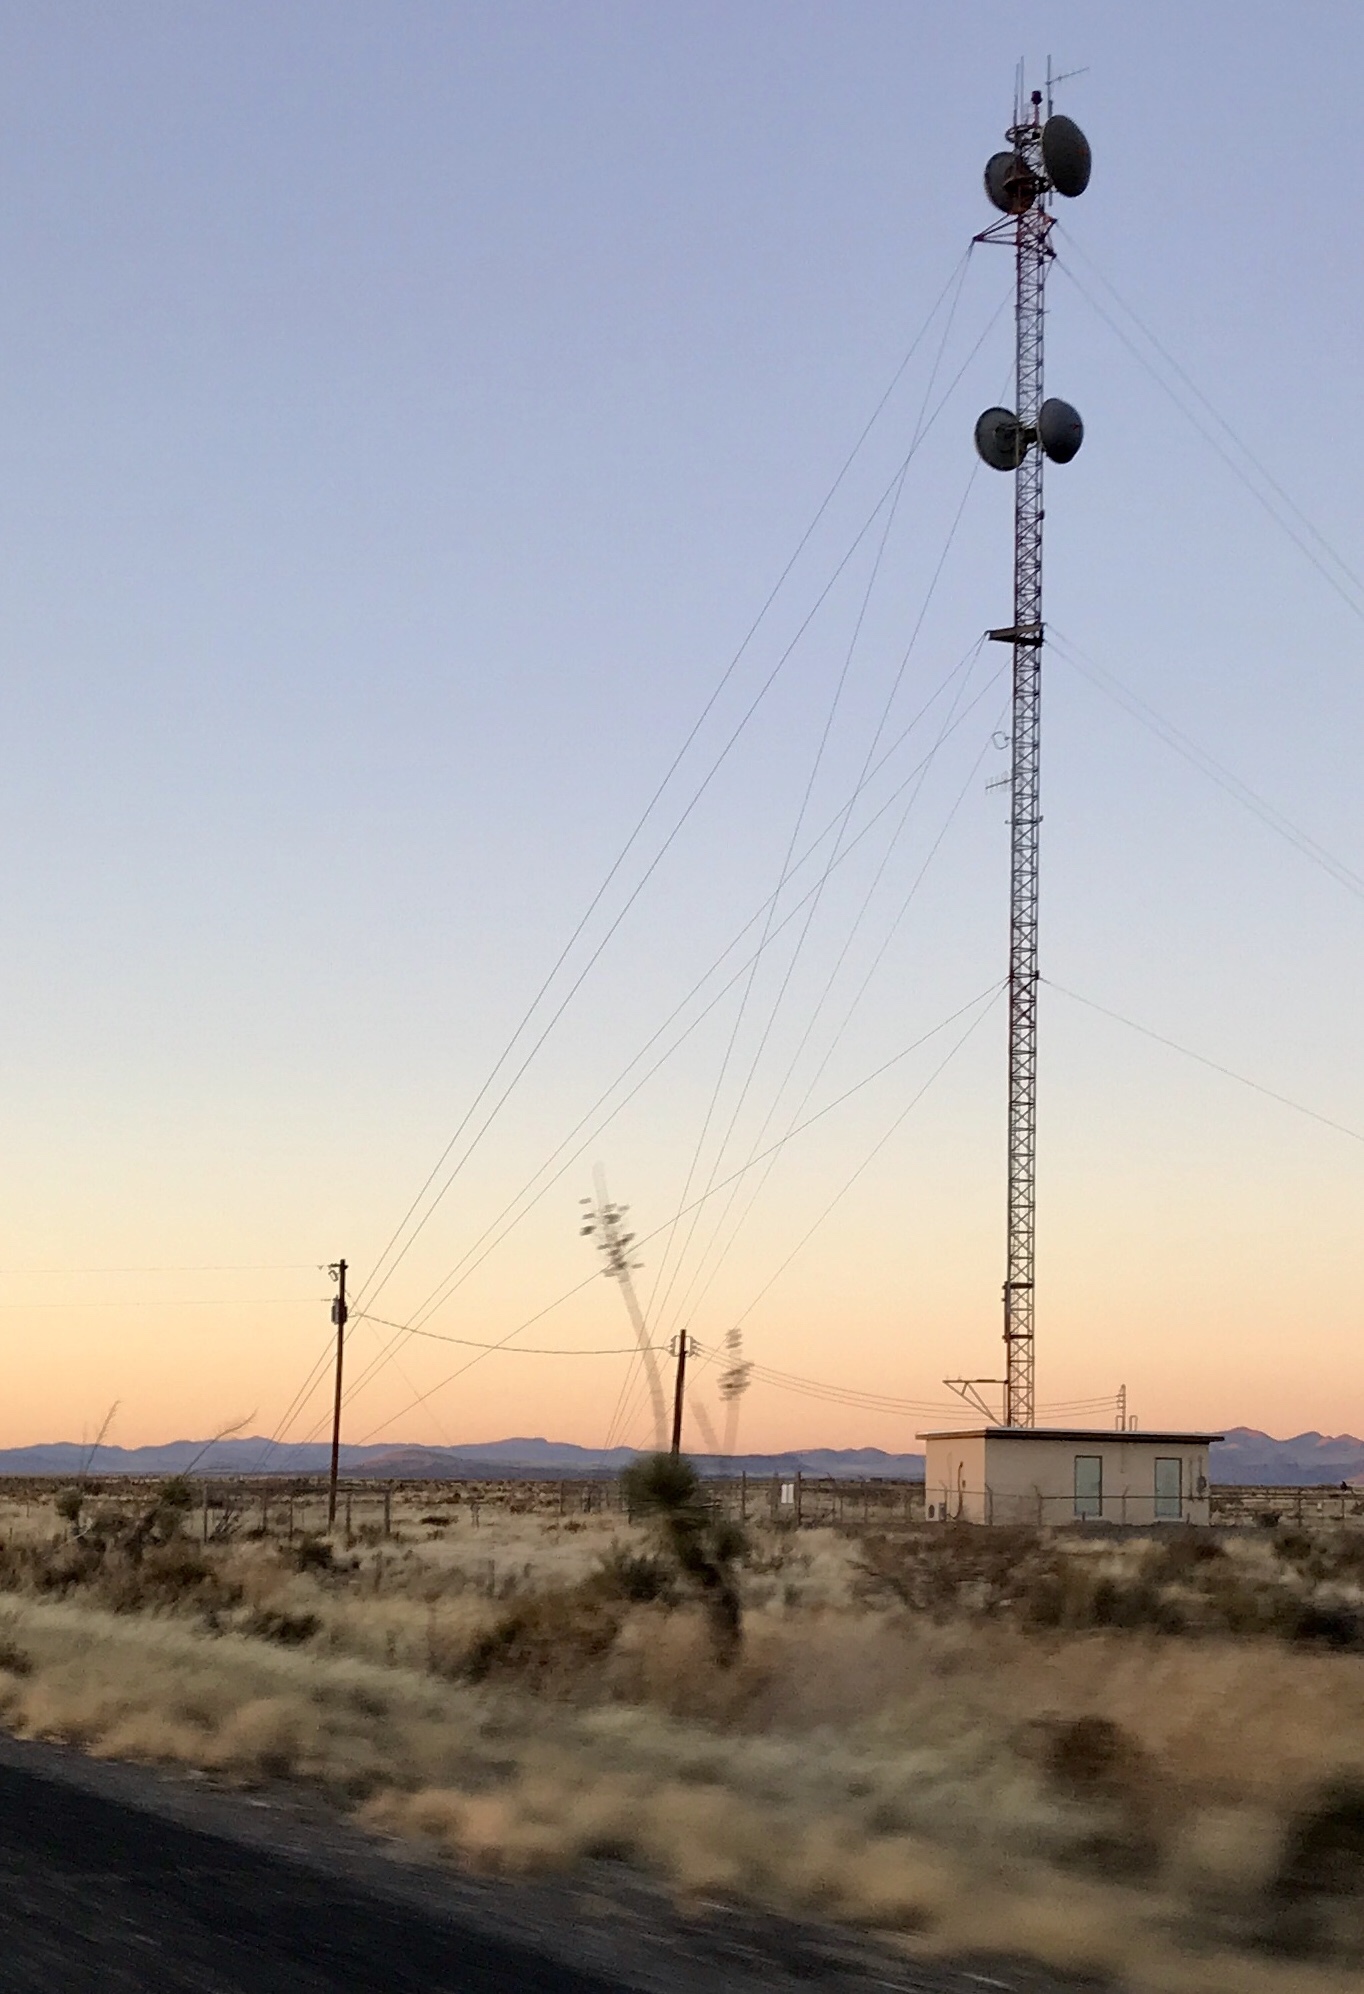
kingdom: Plantae
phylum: Tracheophyta
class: Liliopsida
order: Asparagales
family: Asparagaceae
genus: Yucca
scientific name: Yucca elata
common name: Palmella
